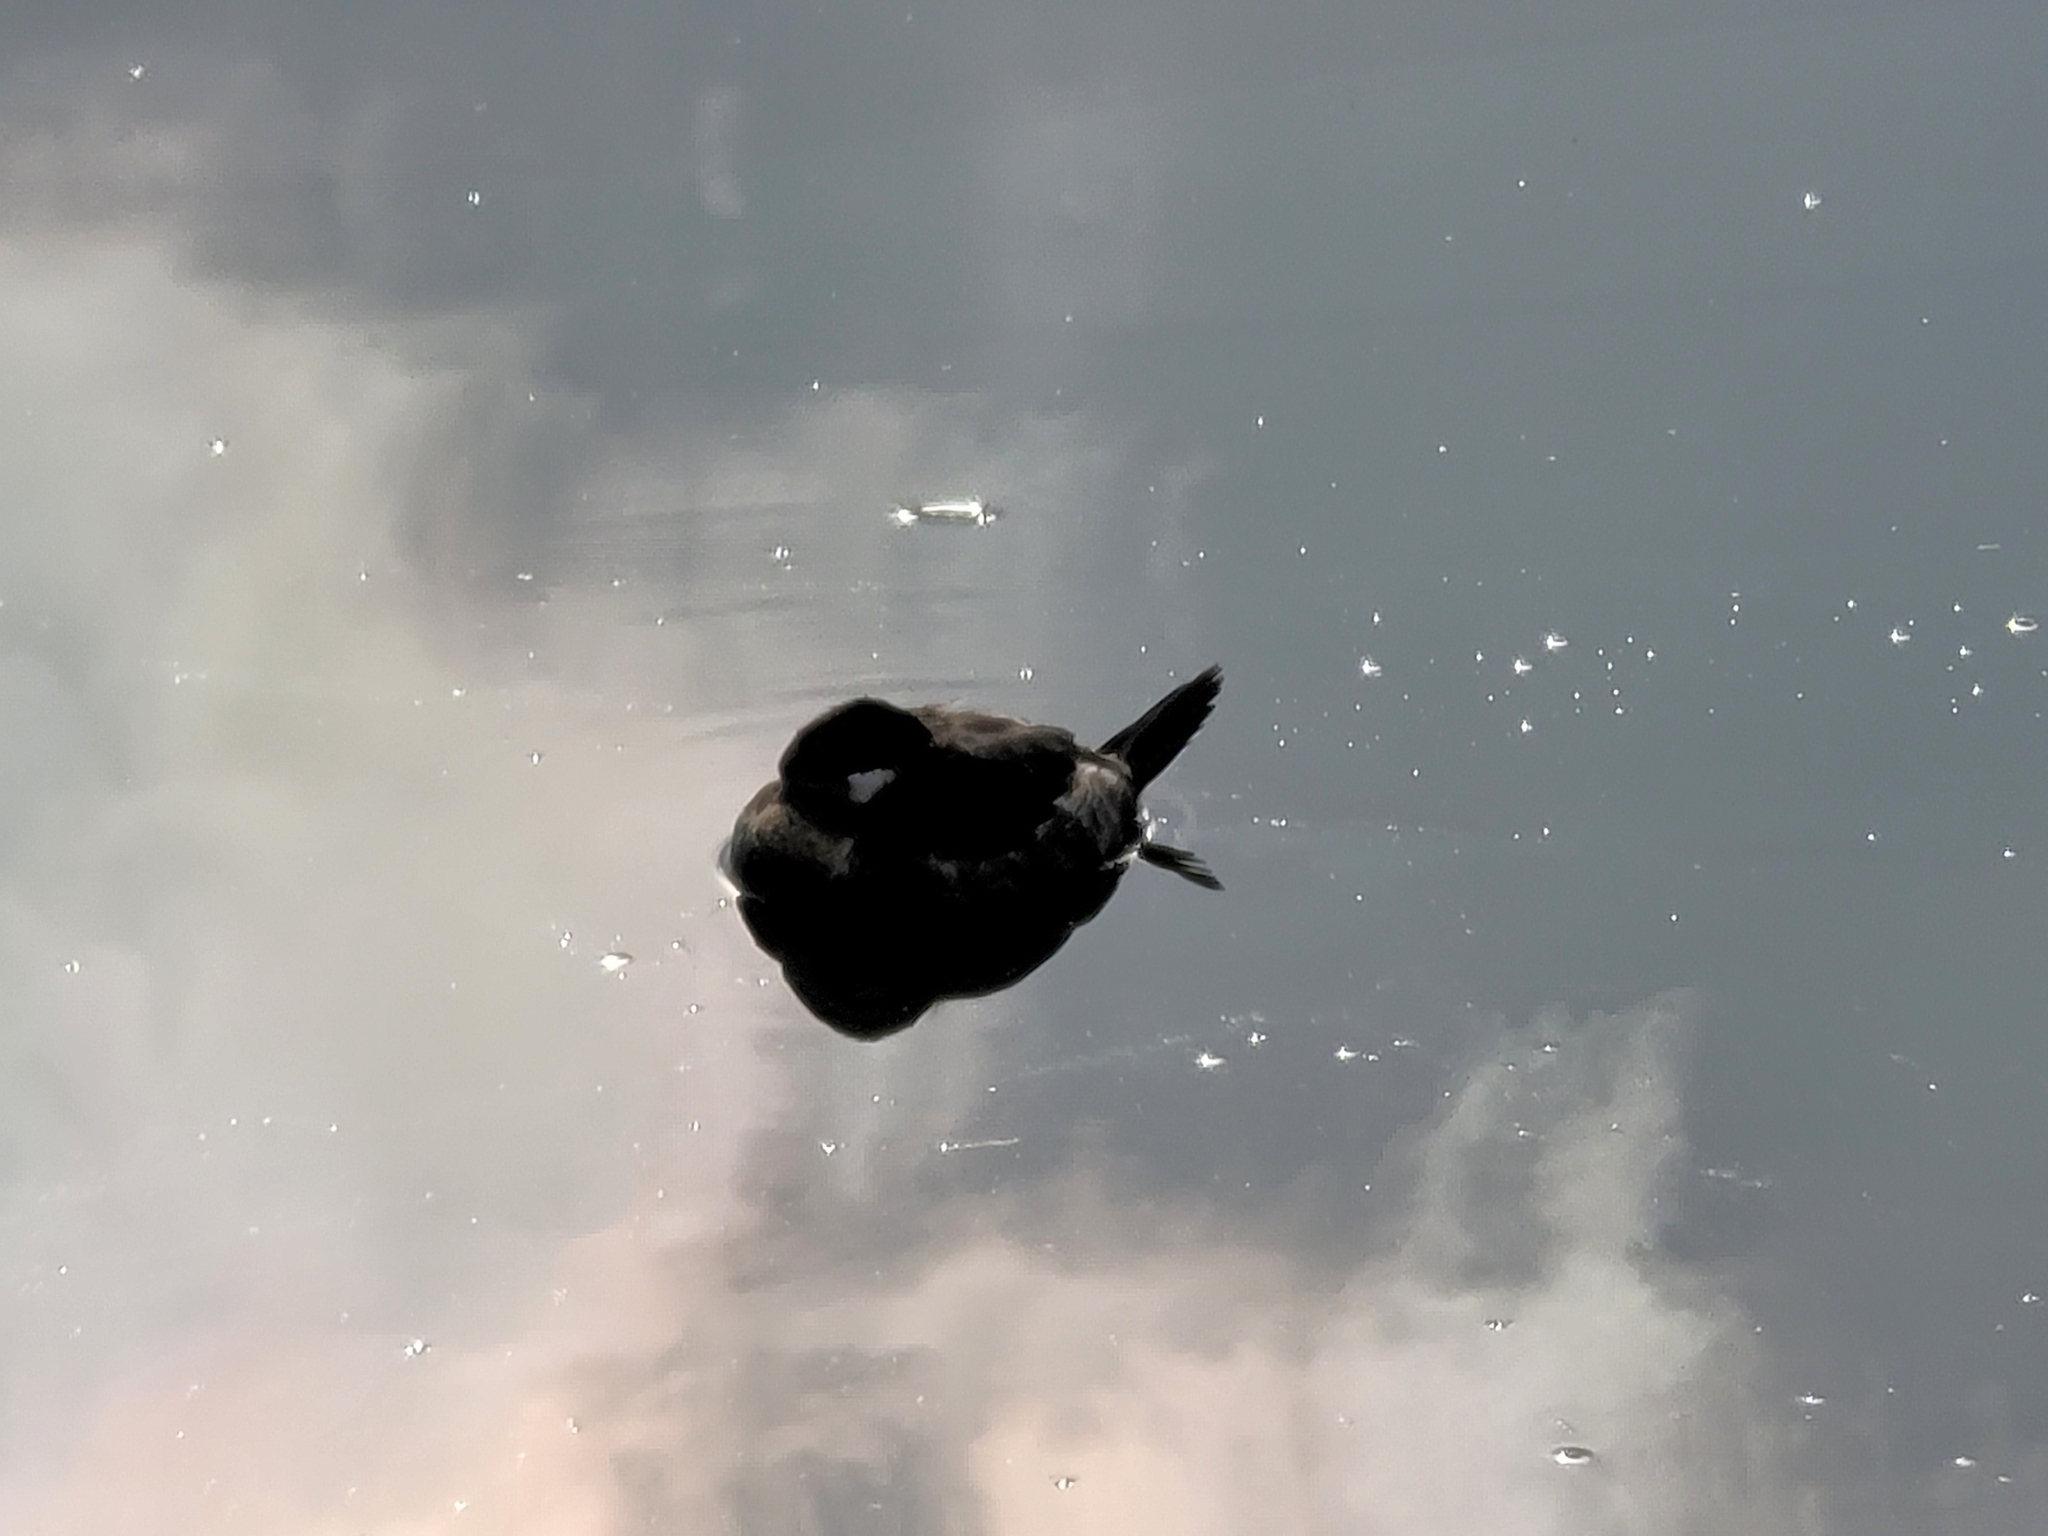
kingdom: Animalia
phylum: Chordata
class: Aves
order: Anseriformes
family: Anatidae
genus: Oxyura
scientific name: Oxyura jamaicensis
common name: Ruddy duck
